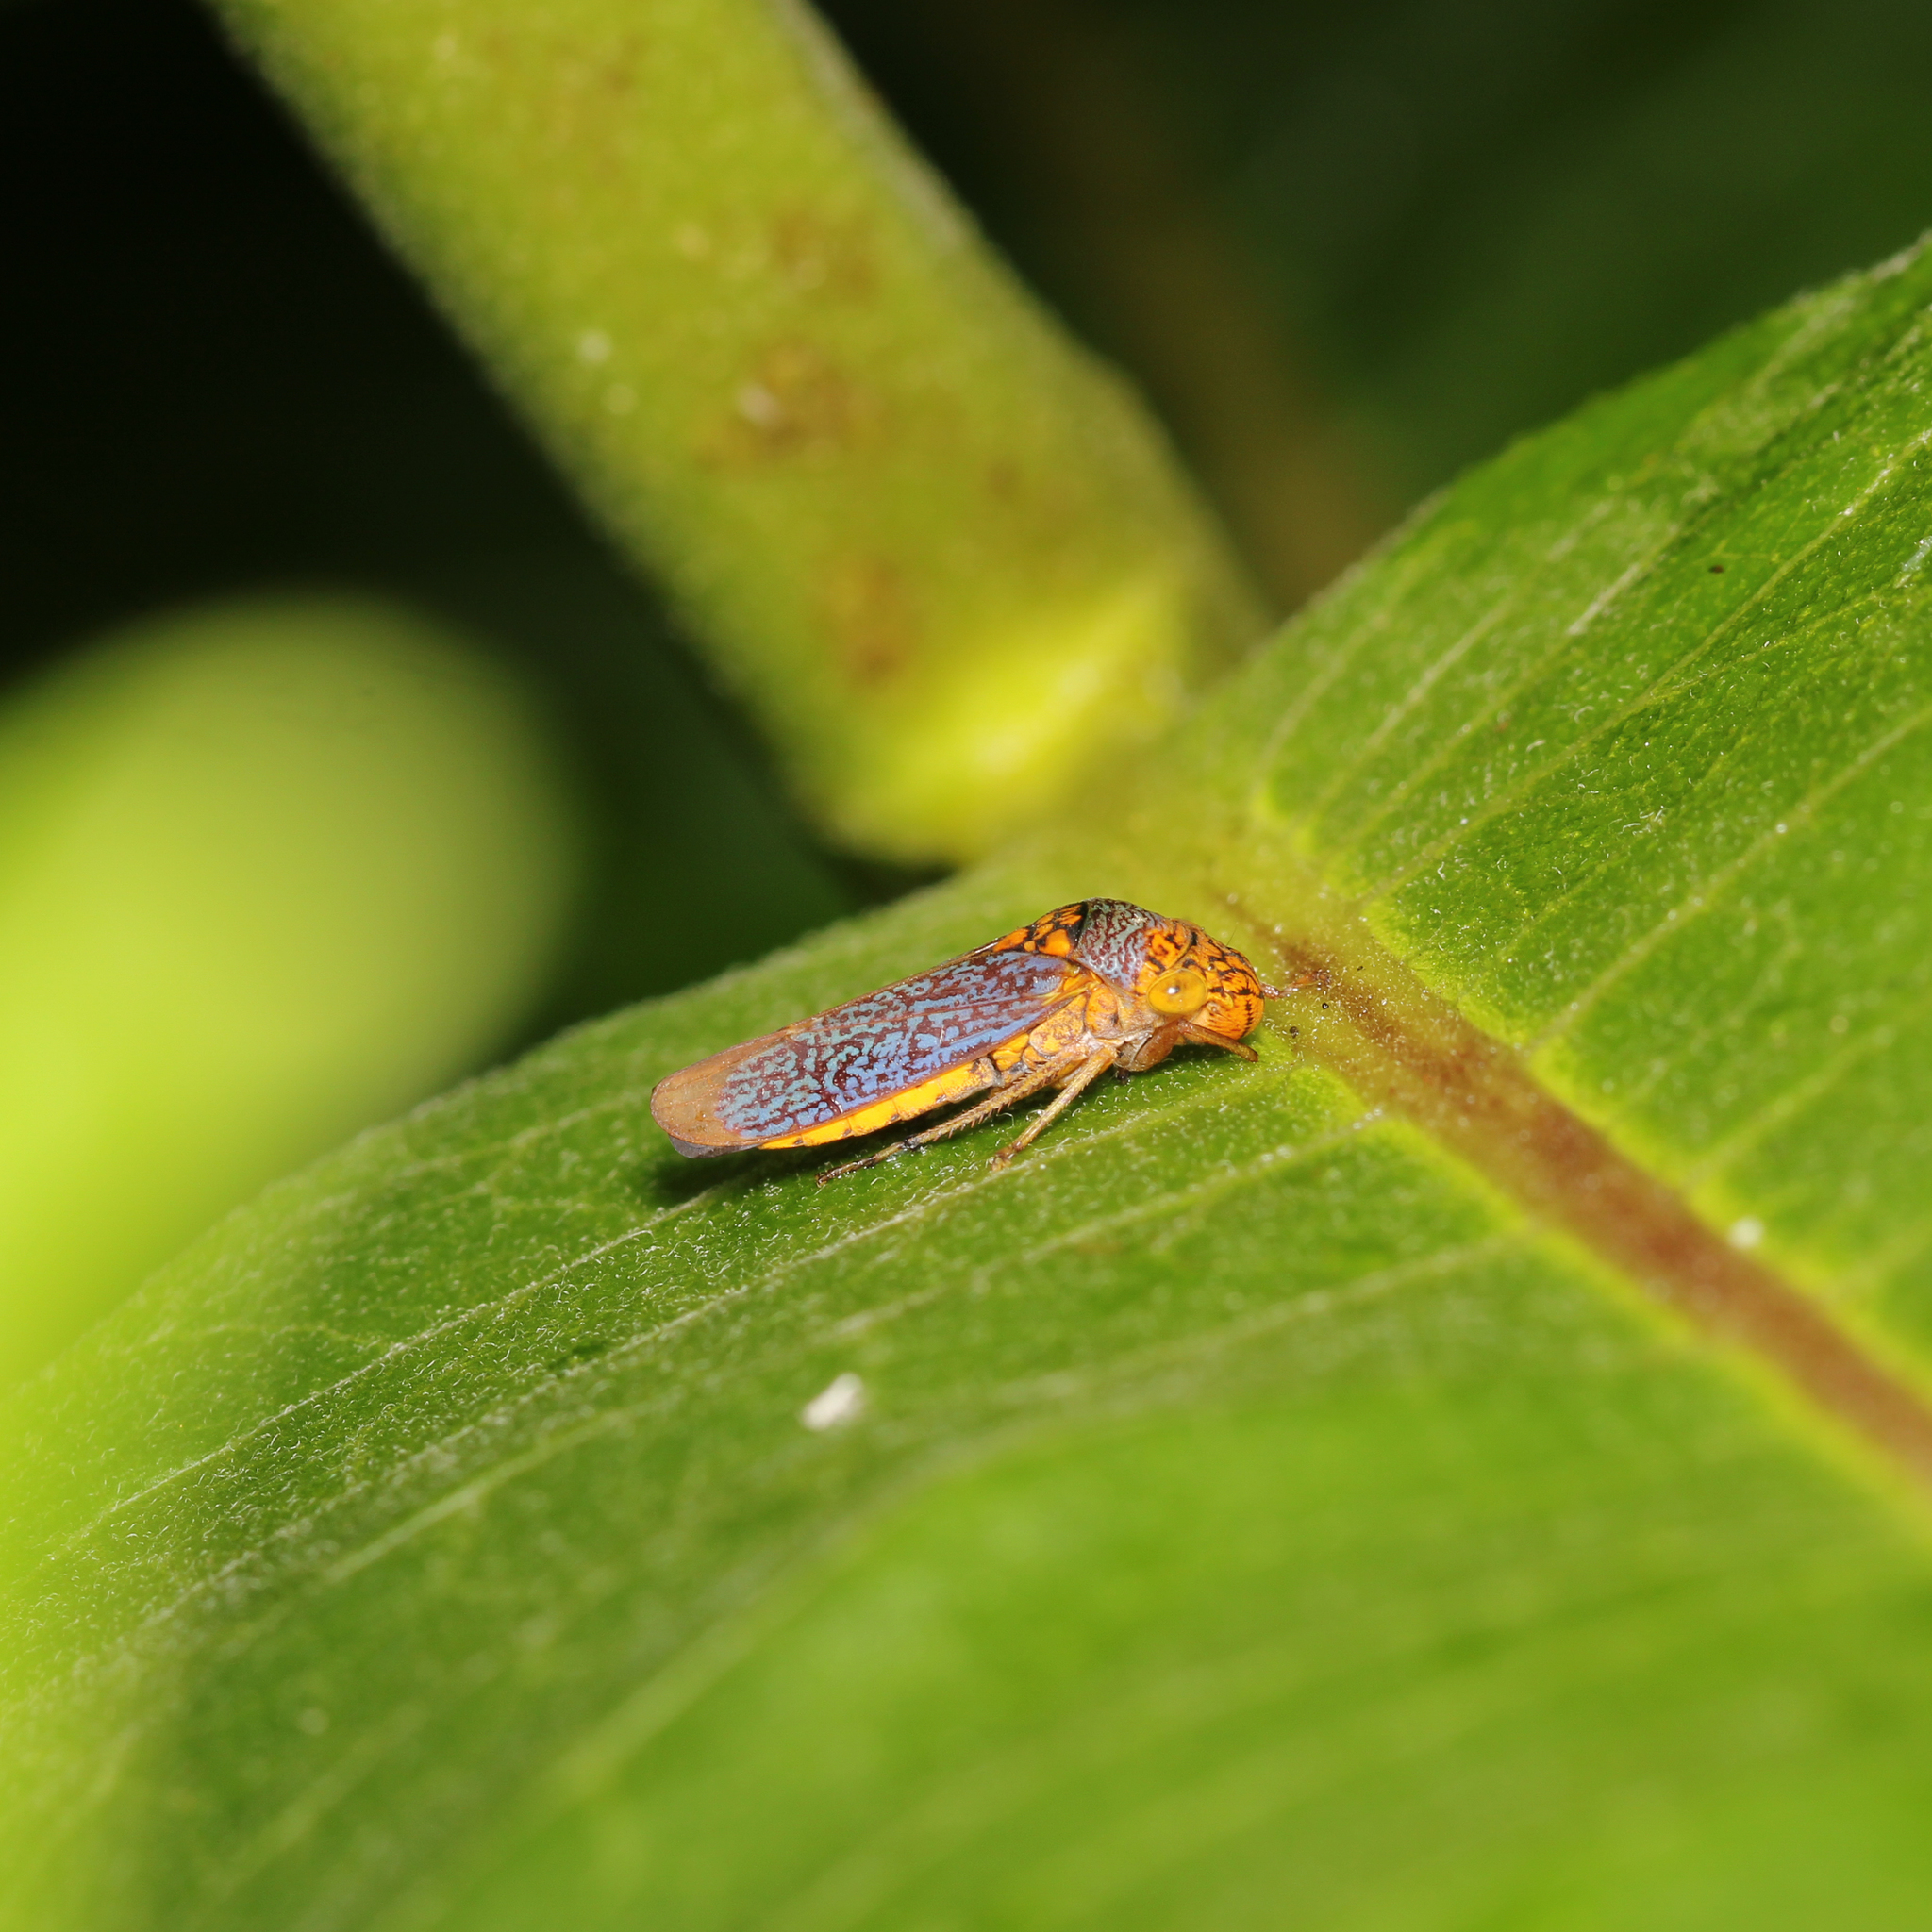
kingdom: Animalia
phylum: Arthropoda
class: Insecta
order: Hemiptera
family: Cicadellidae
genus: Oncometopia
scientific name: Oncometopia orbona
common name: Broad-headed sharpshooter
